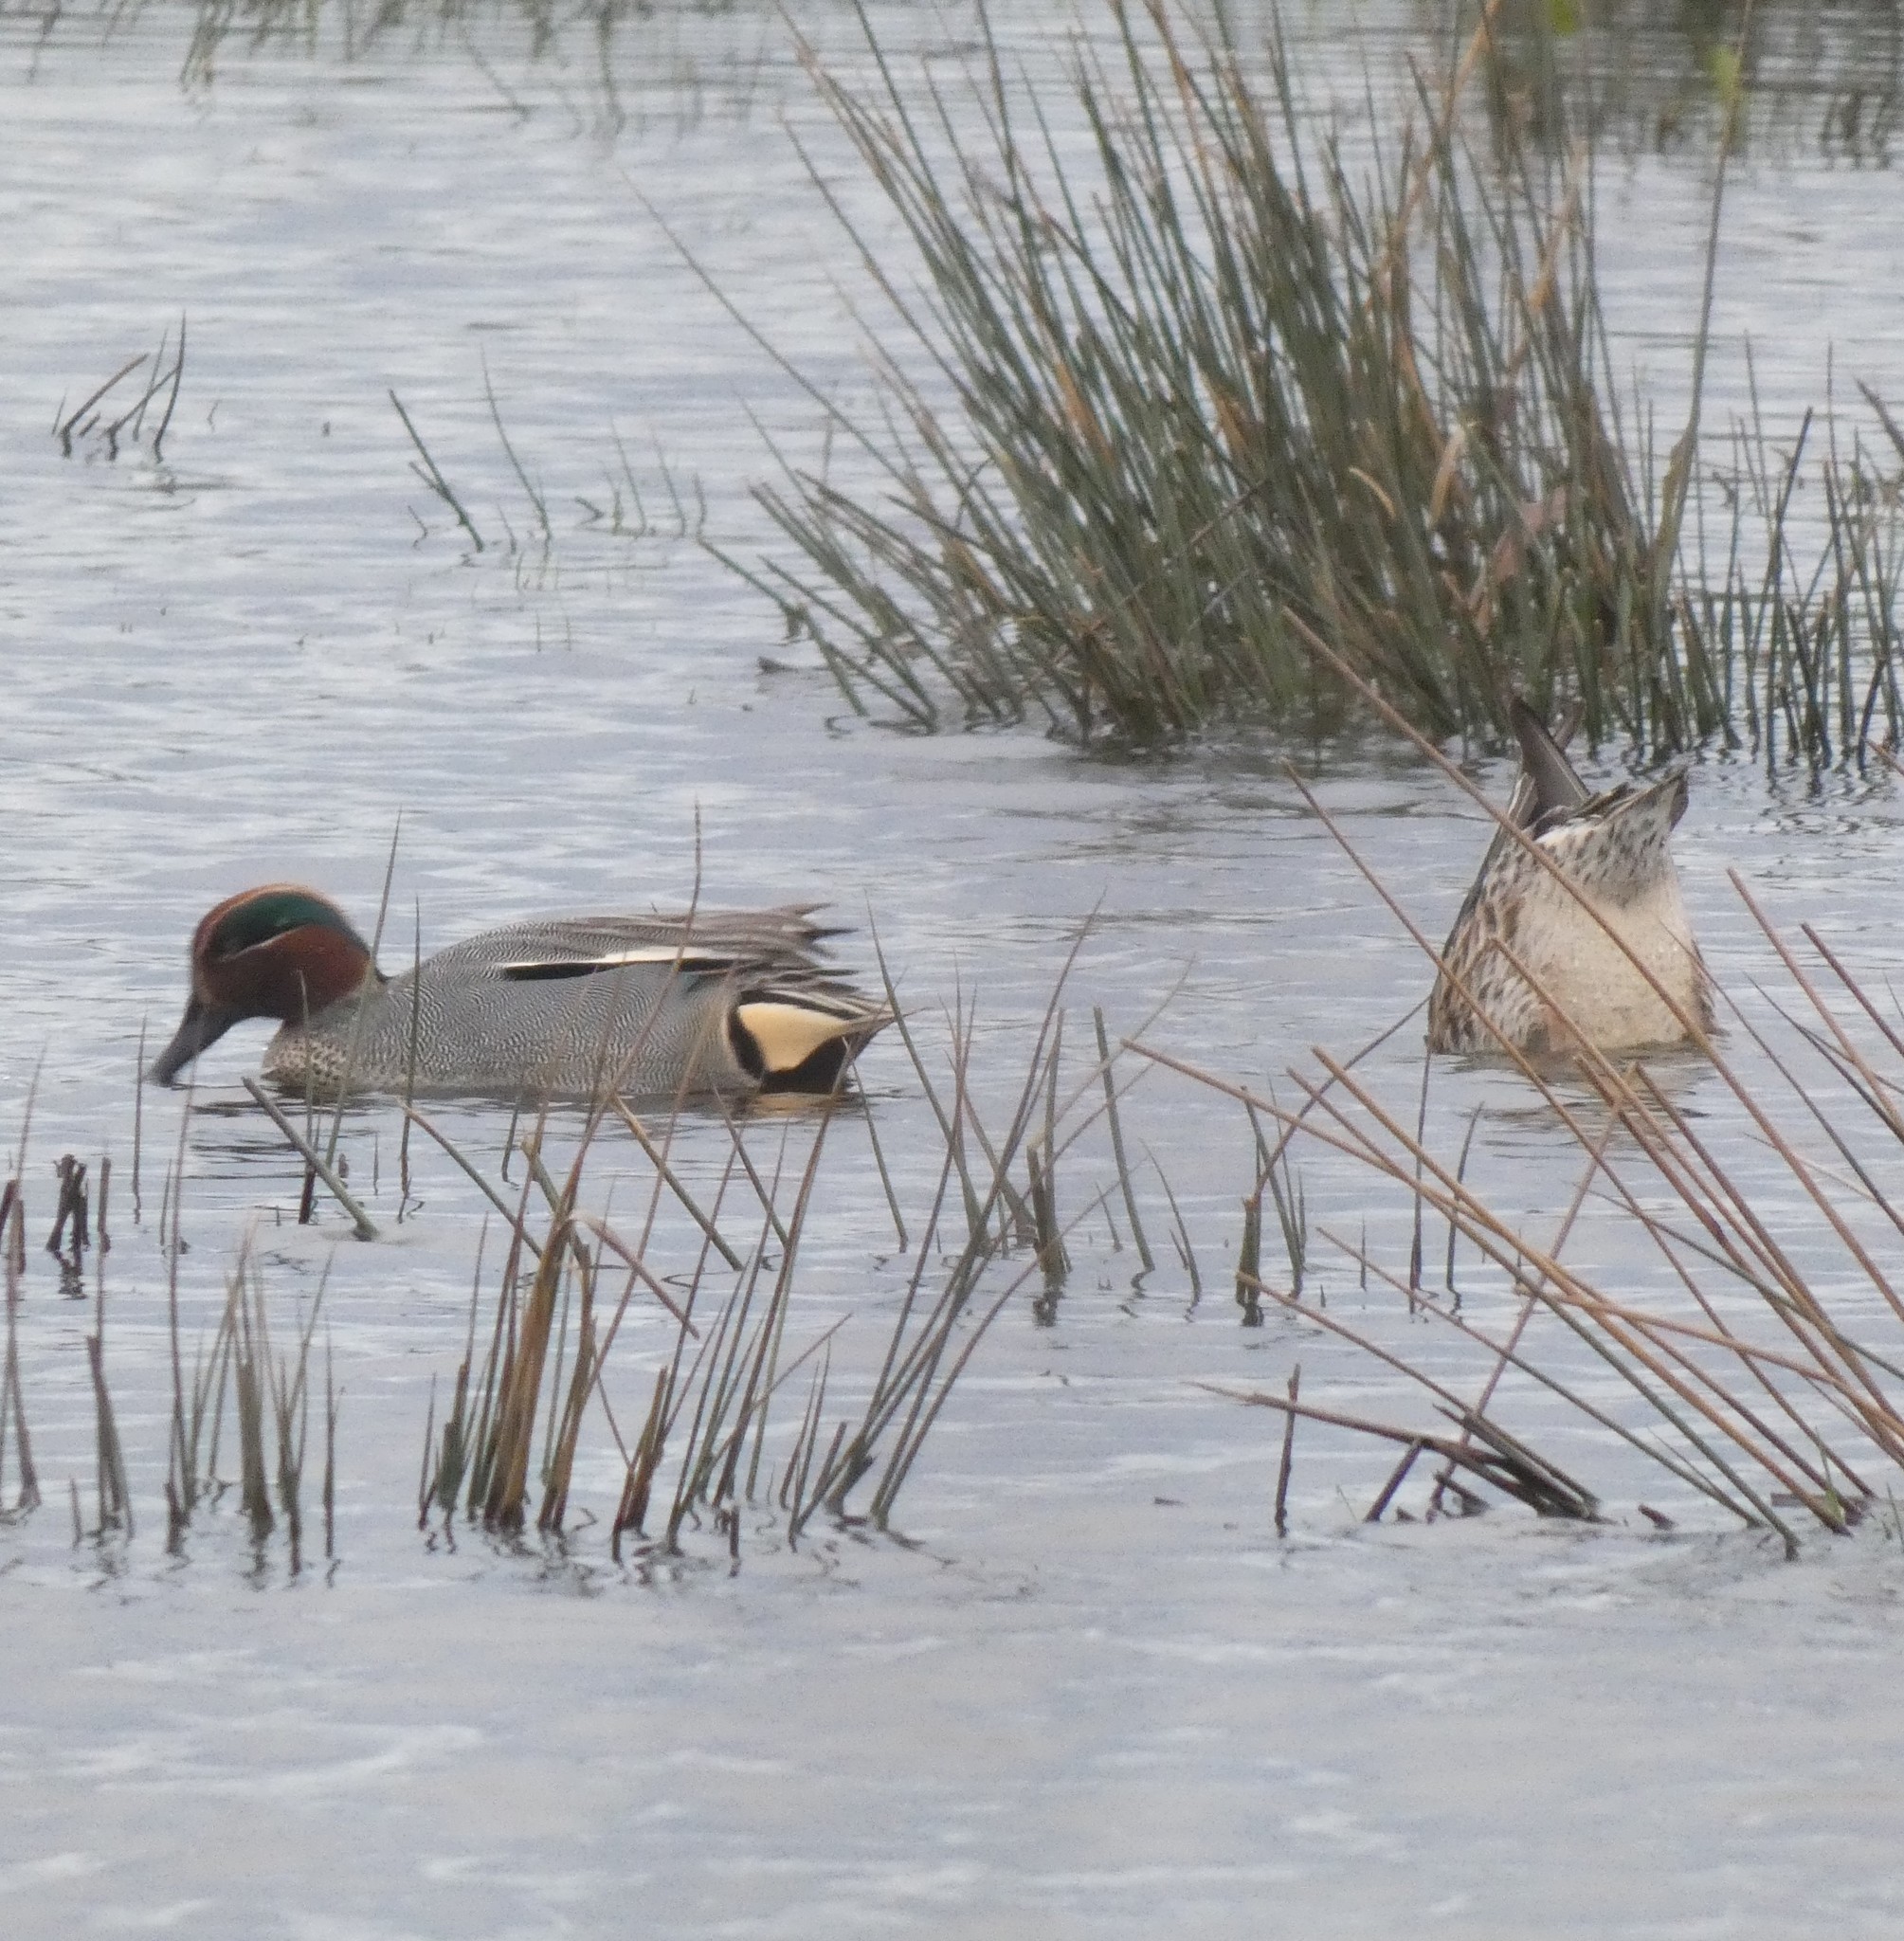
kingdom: Animalia
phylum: Chordata
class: Aves
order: Anseriformes
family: Anatidae
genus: Anas
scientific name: Anas crecca
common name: Eurasian teal
